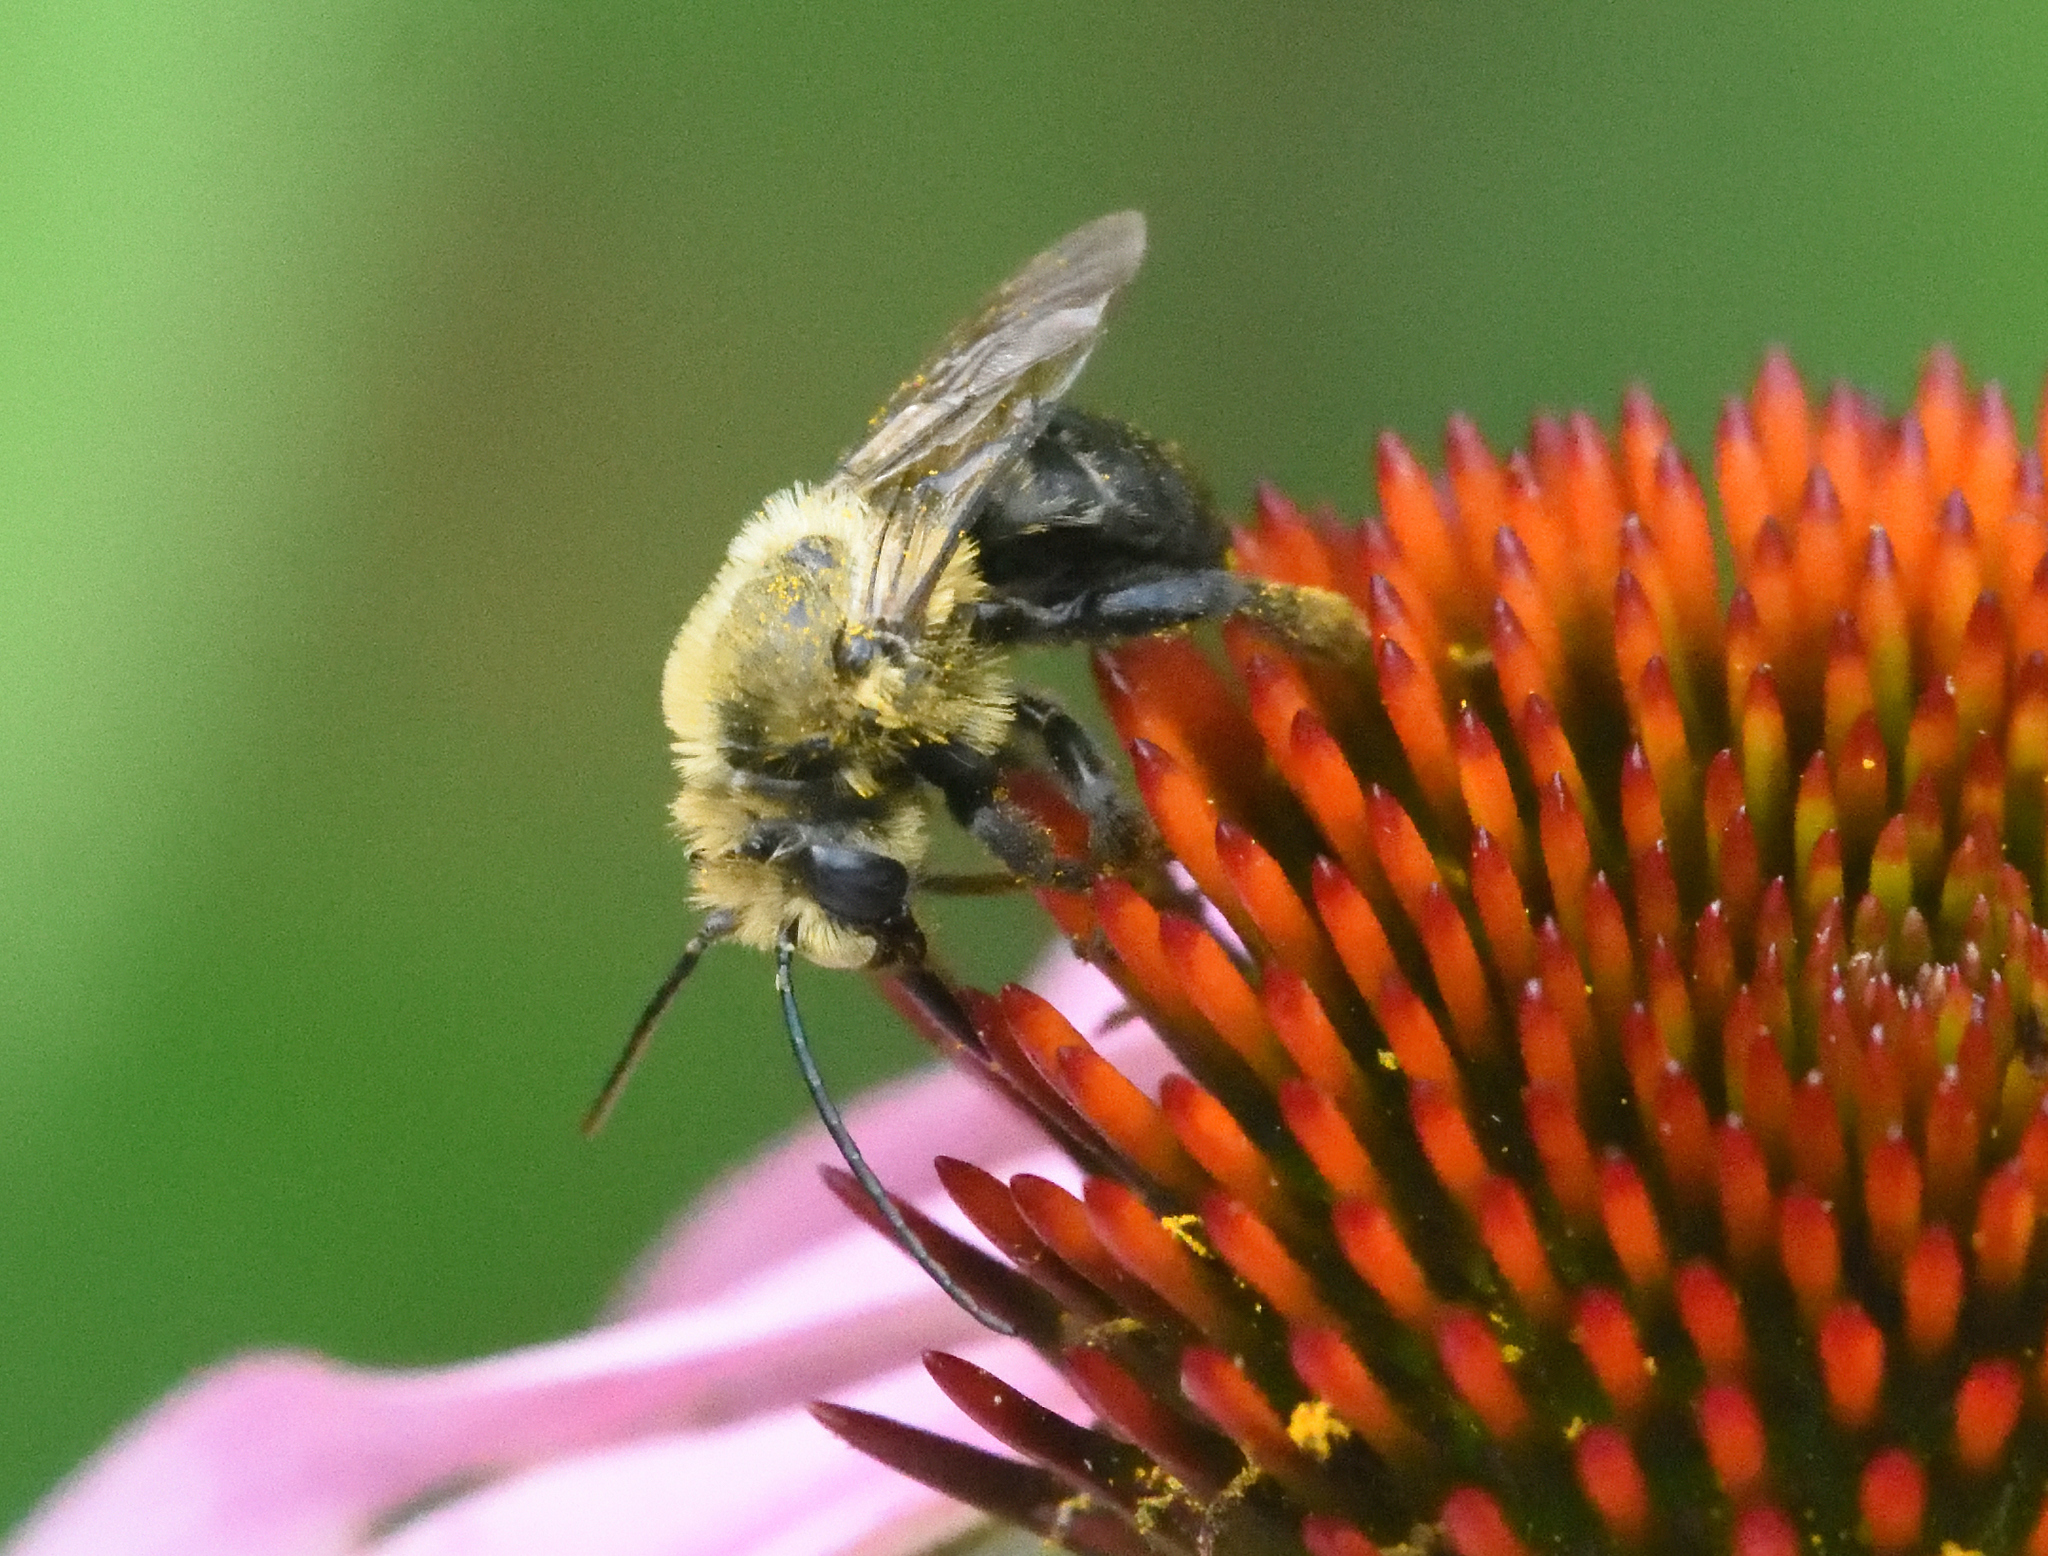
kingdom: Animalia
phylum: Arthropoda
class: Insecta
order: Lepidoptera
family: Hesperiidae
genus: Atalopedes
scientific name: Atalopedes
